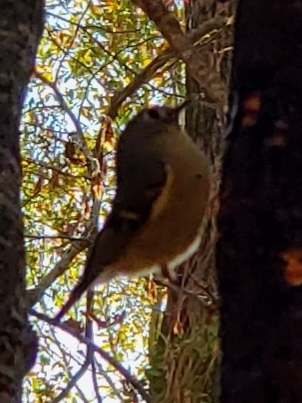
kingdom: Animalia
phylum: Chordata
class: Aves
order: Passeriformes
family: Regulidae
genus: Regulus
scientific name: Regulus calendula
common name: Ruby-crowned kinglet
